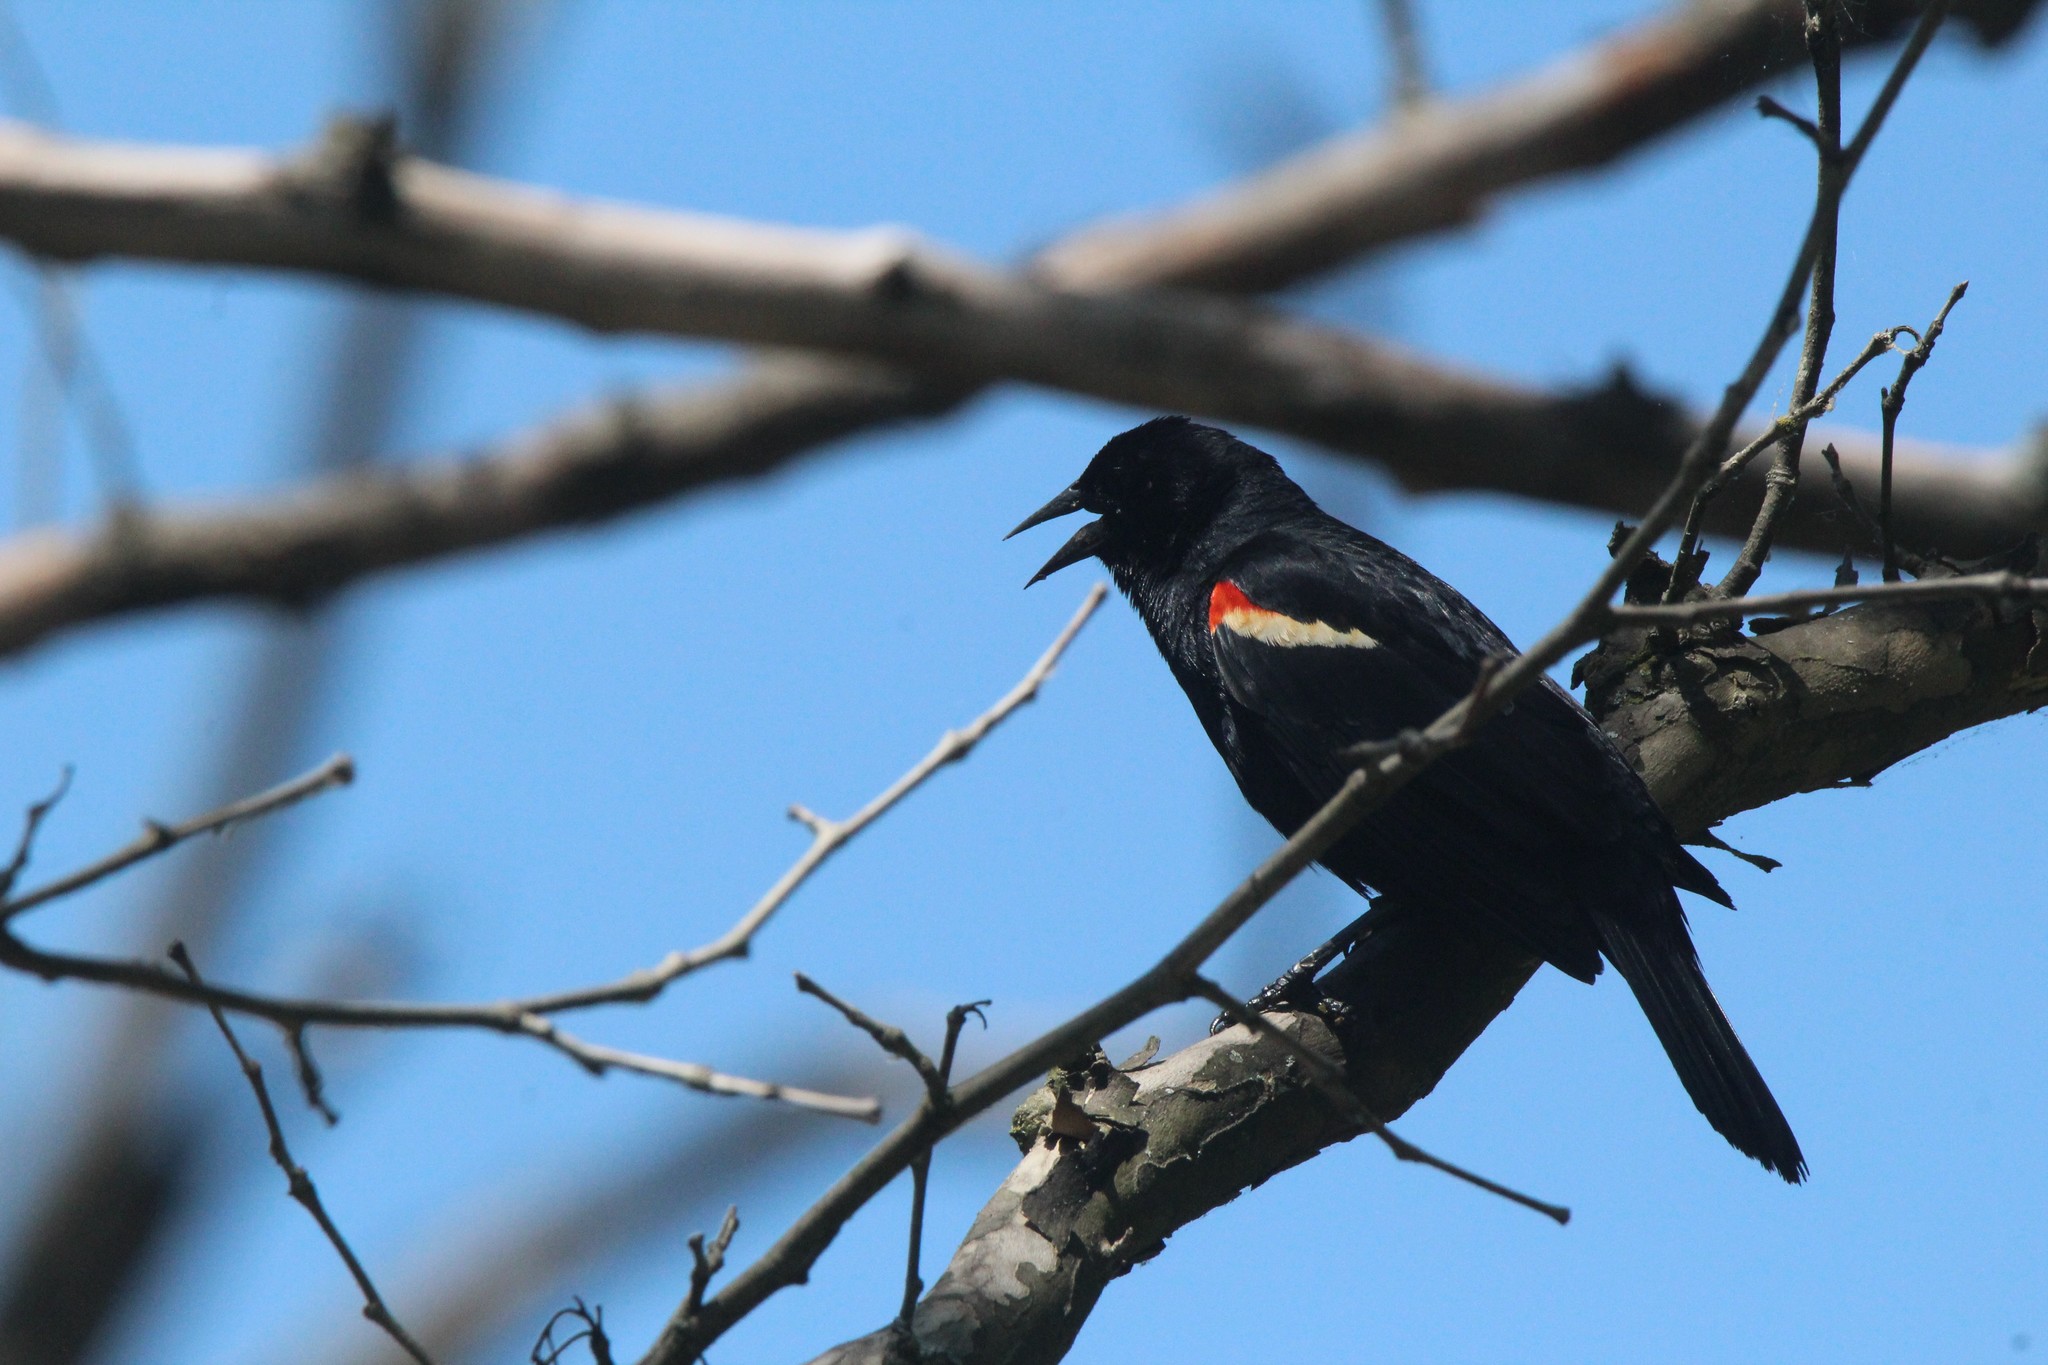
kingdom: Animalia
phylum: Chordata
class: Aves
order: Passeriformes
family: Icteridae
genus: Agelaius
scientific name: Agelaius phoeniceus
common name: Red-winged blackbird
